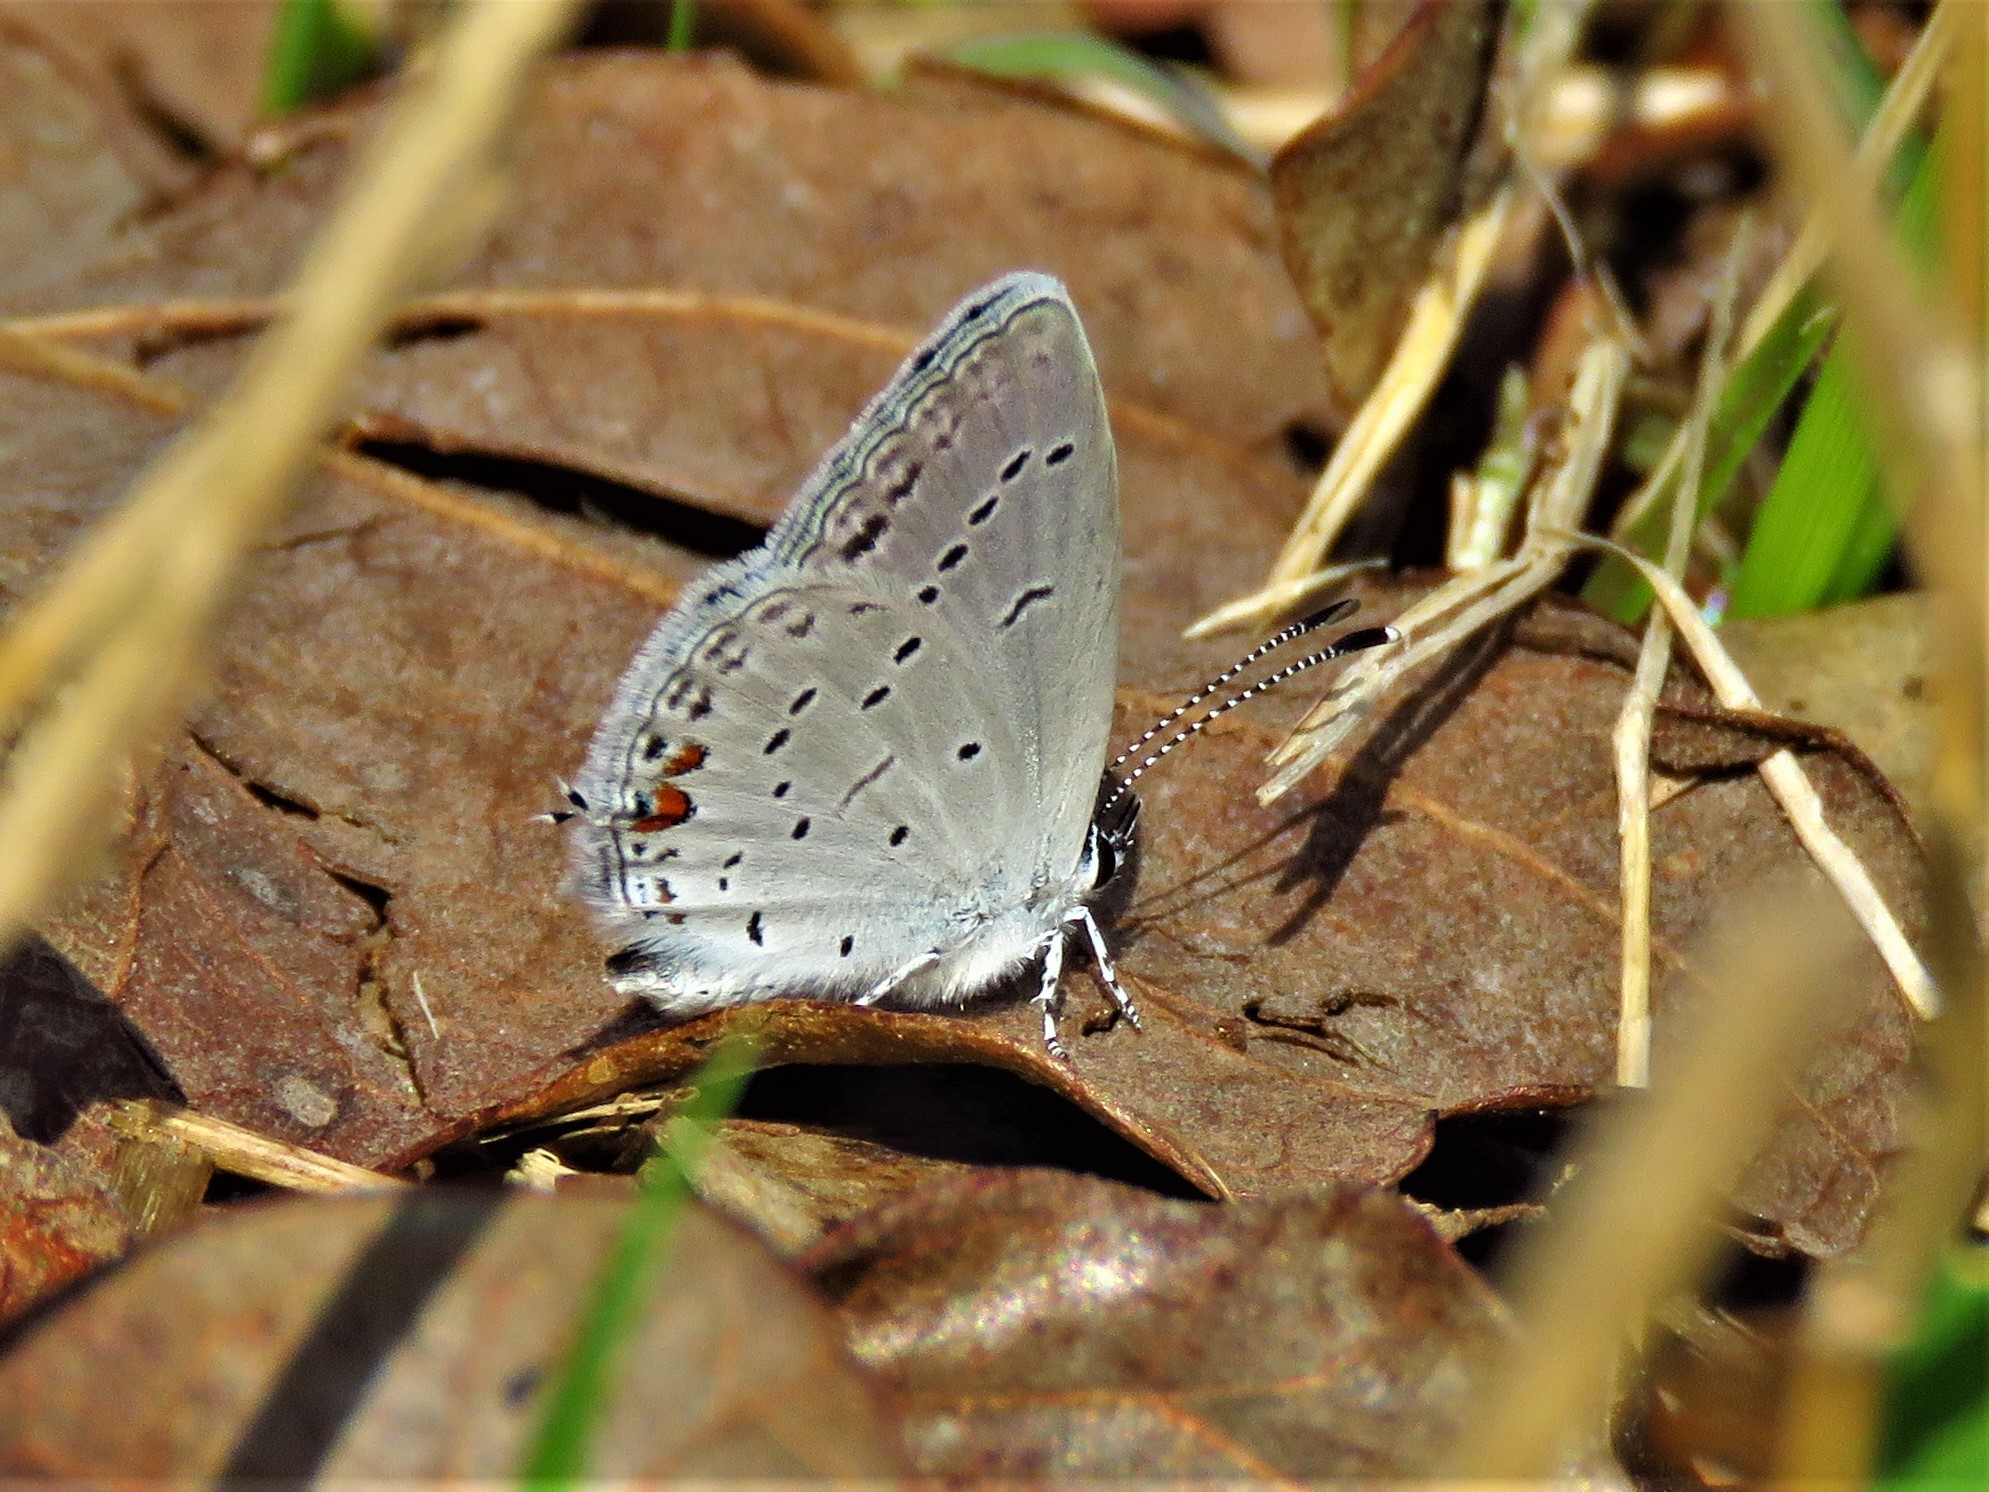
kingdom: Animalia
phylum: Arthropoda
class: Insecta
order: Lepidoptera
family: Lycaenidae
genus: Elkalyce
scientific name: Elkalyce comyntas
